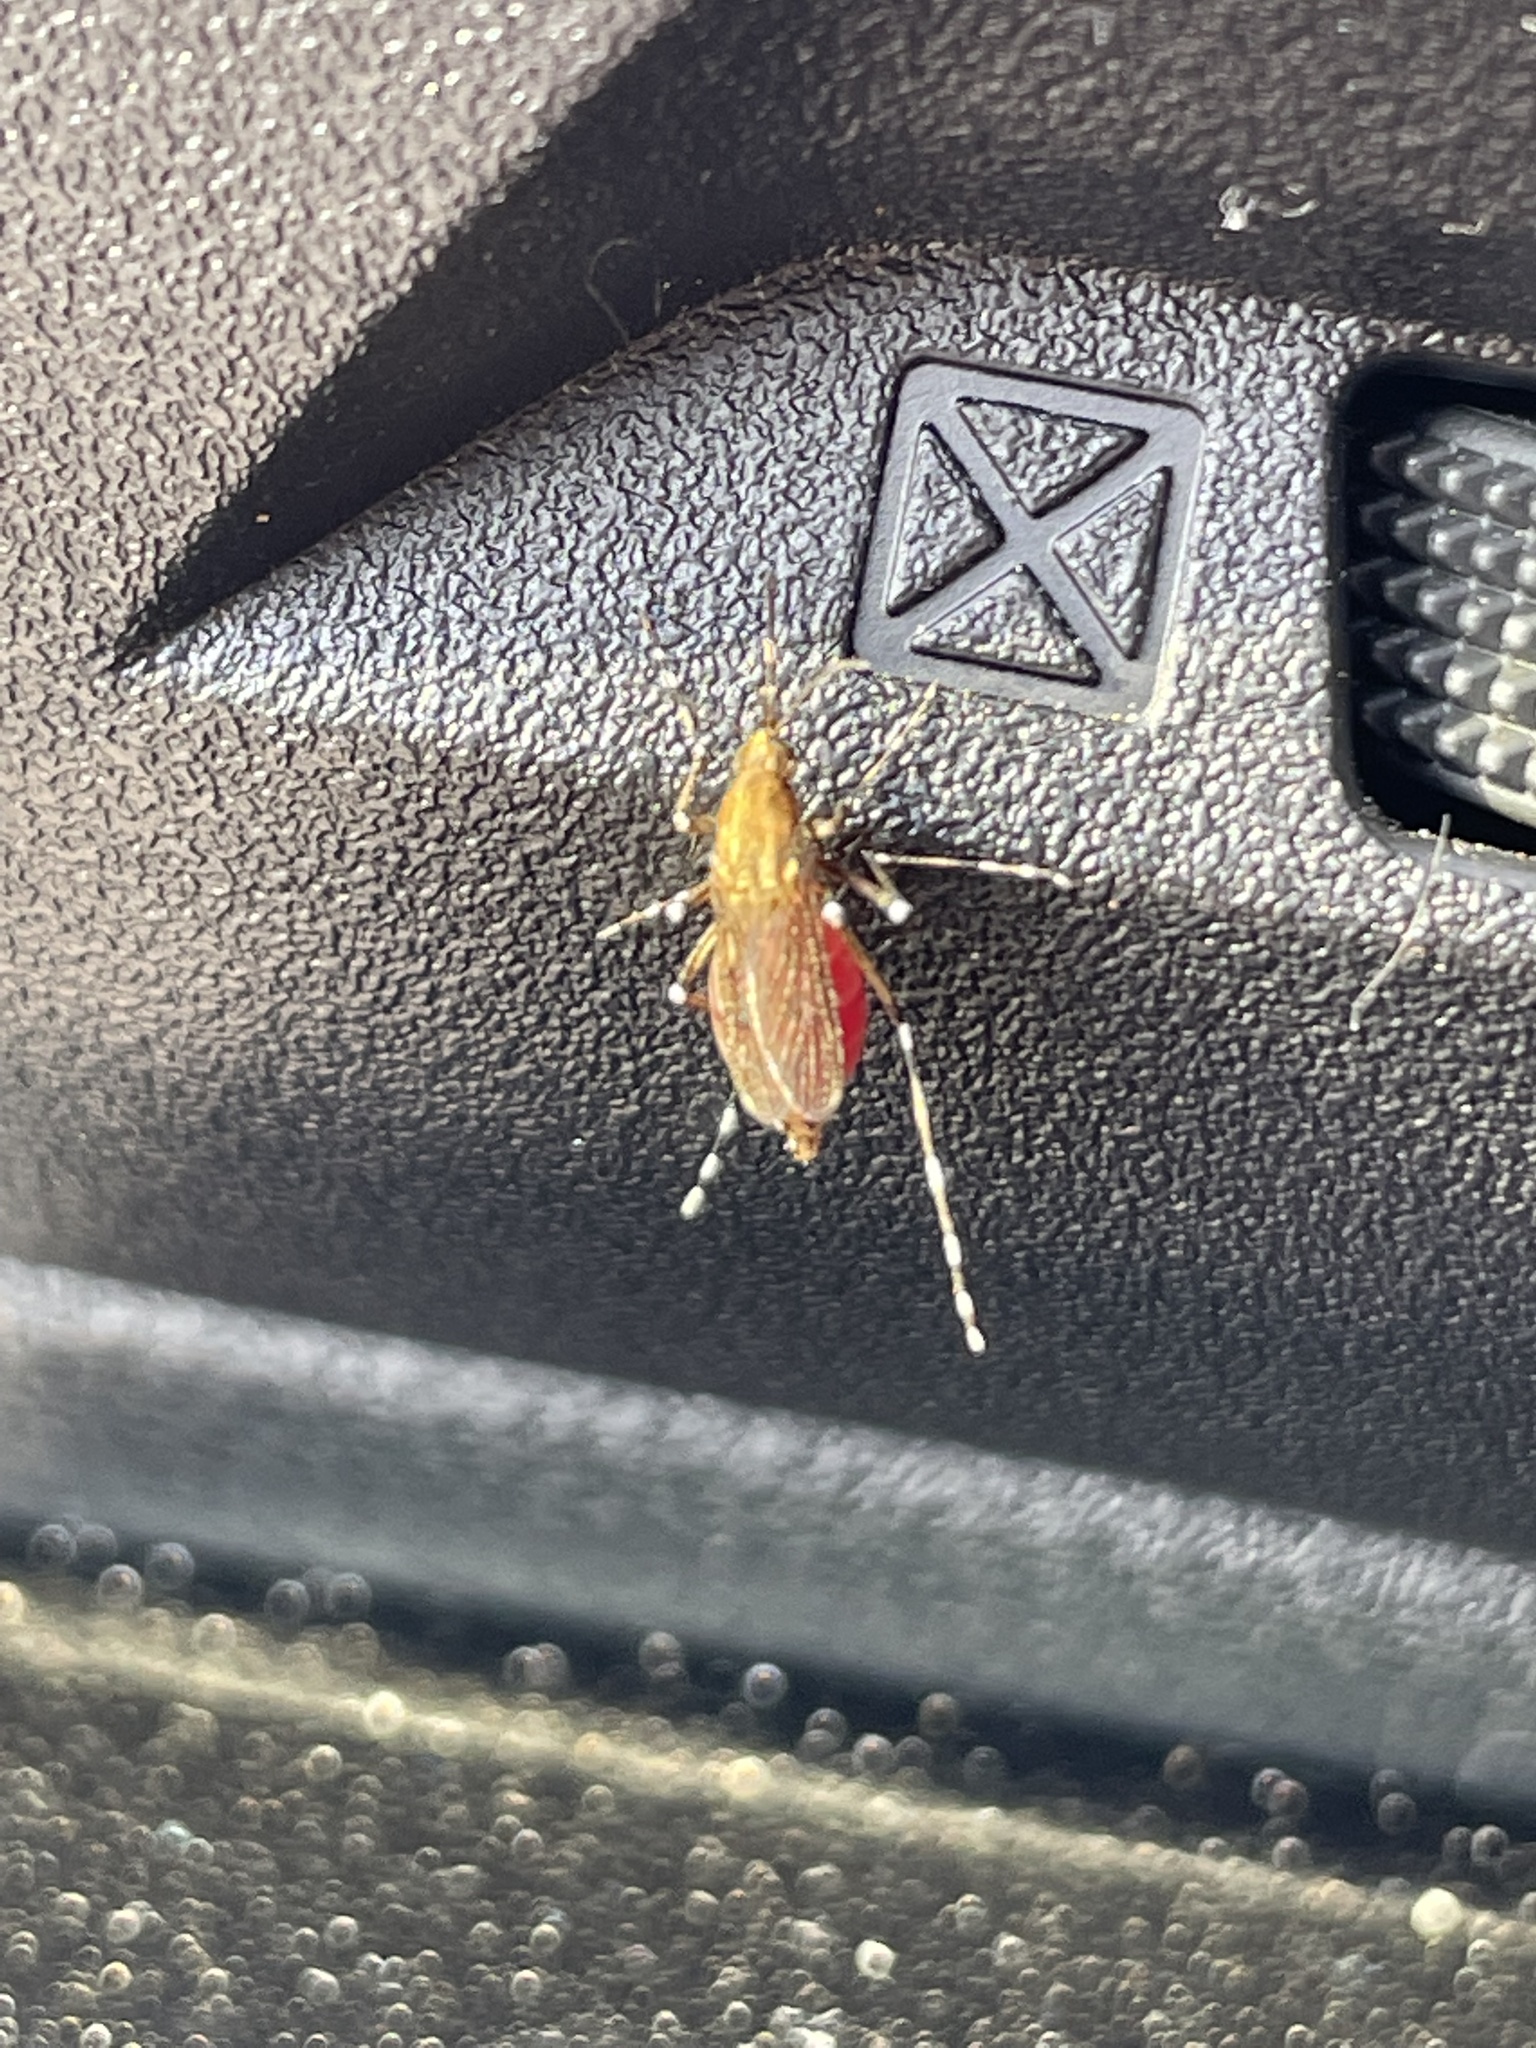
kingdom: Animalia
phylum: Arthropoda
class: Insecta
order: Diptera
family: Culicidae
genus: Aedes
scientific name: Aedes sollicitans
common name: Saltmarsh mosquito
